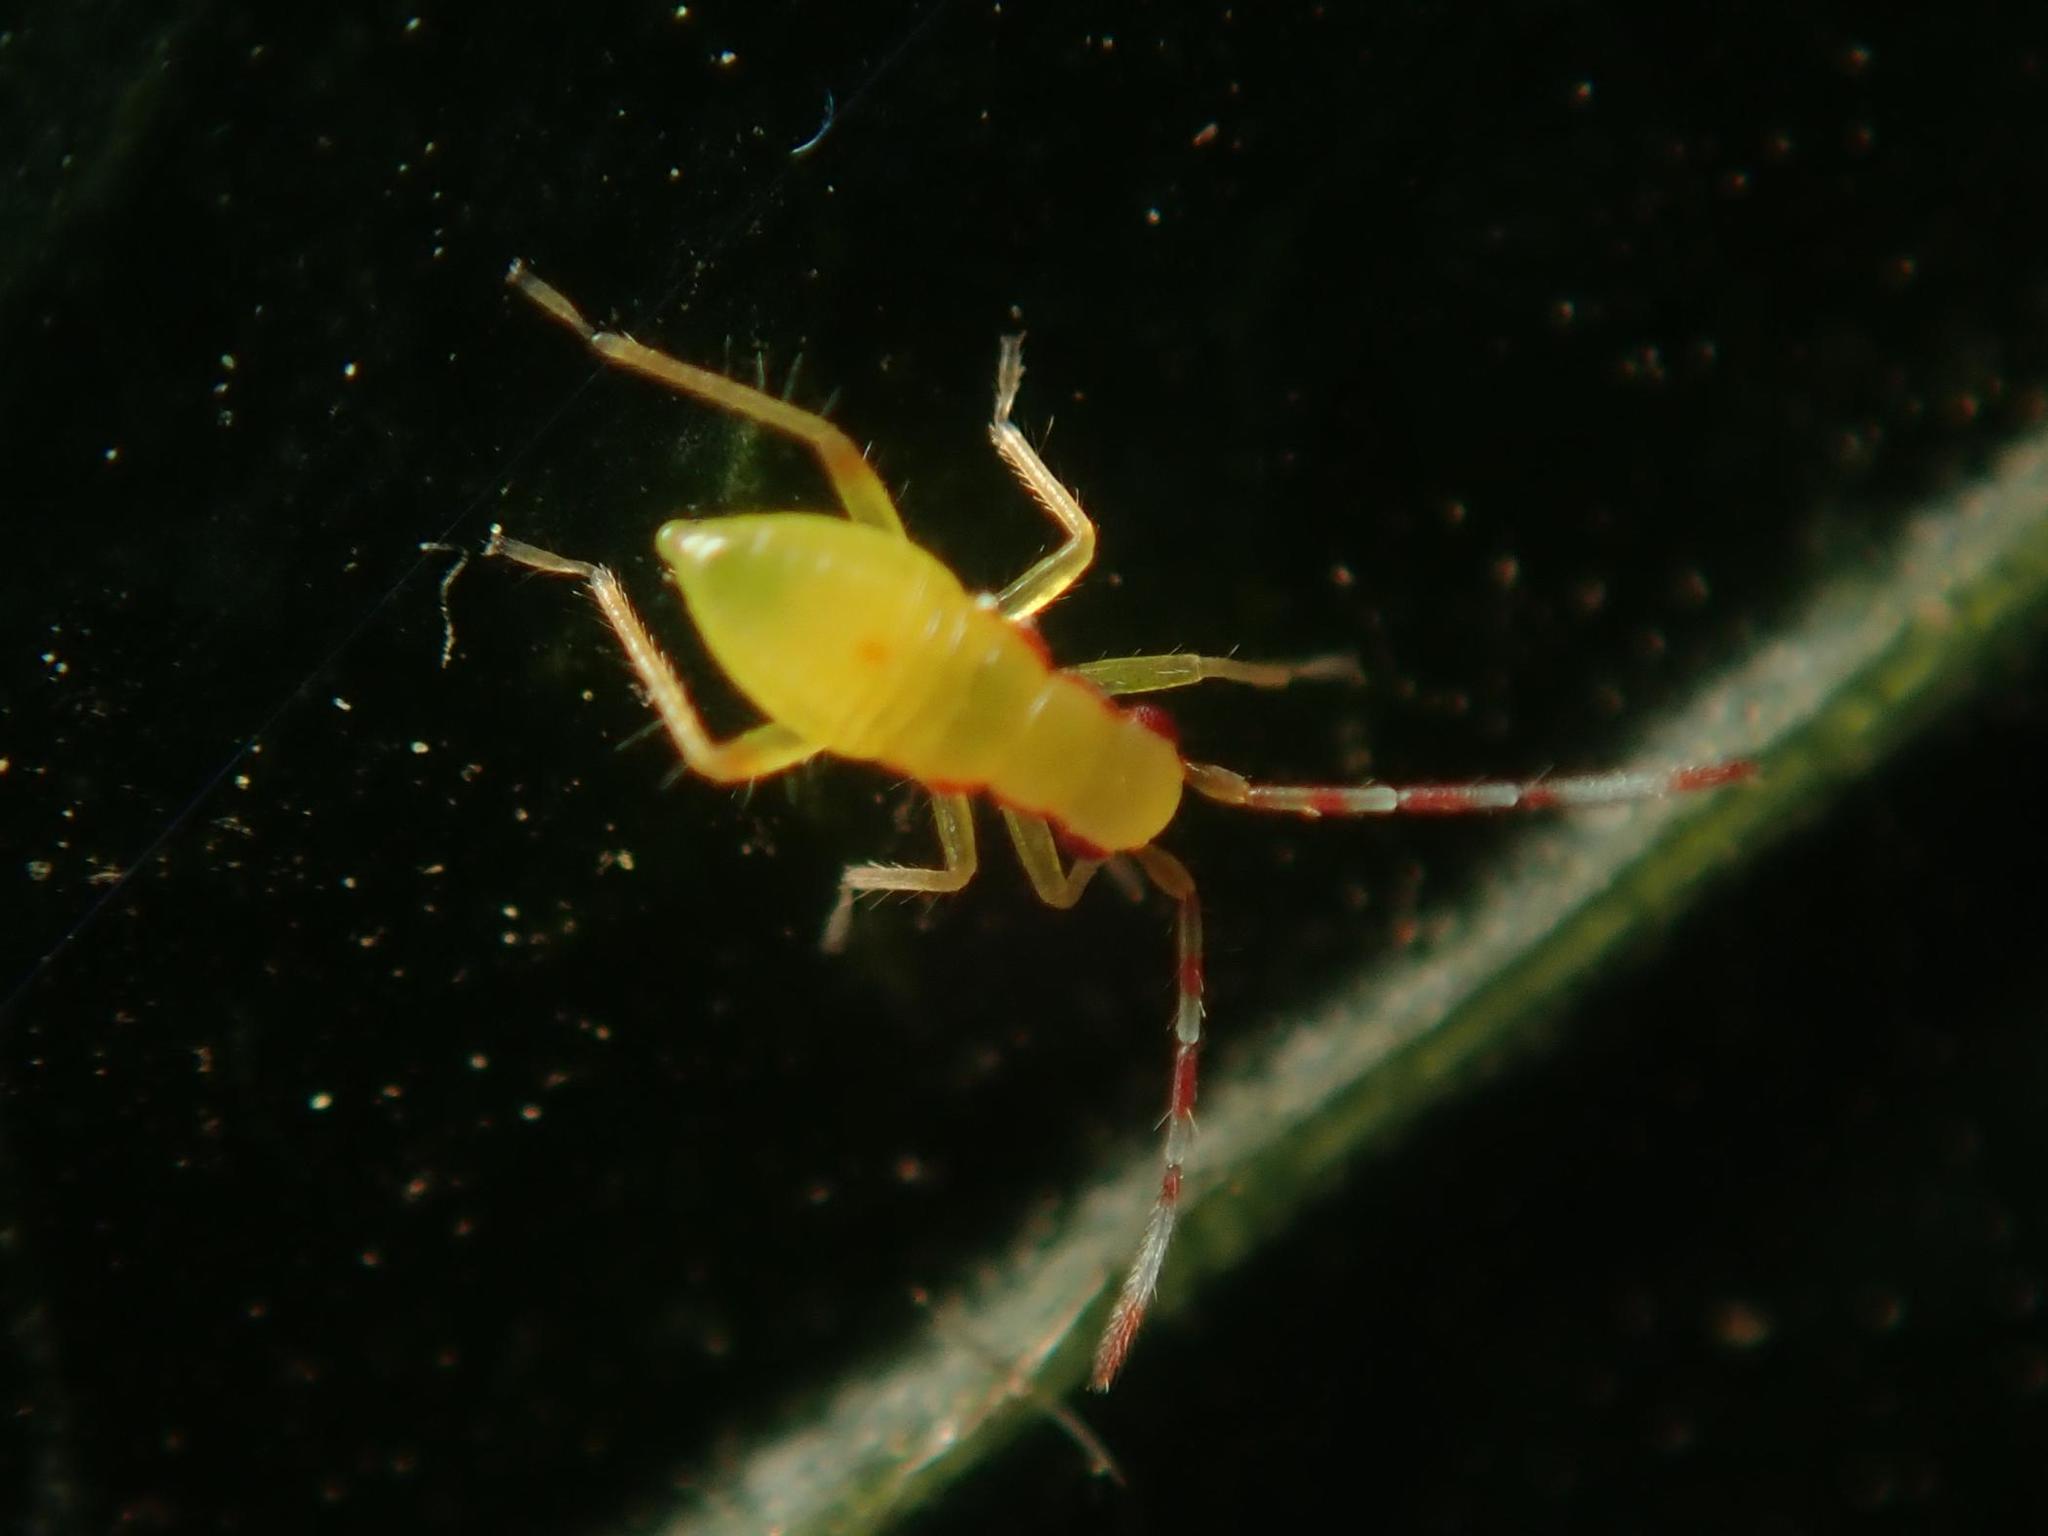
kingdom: Animalia
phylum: Arthropoda
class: Insecta
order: Hemiptera
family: Miridae
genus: Campyloneura
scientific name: Campyloneura virgula
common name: Predatory bug
